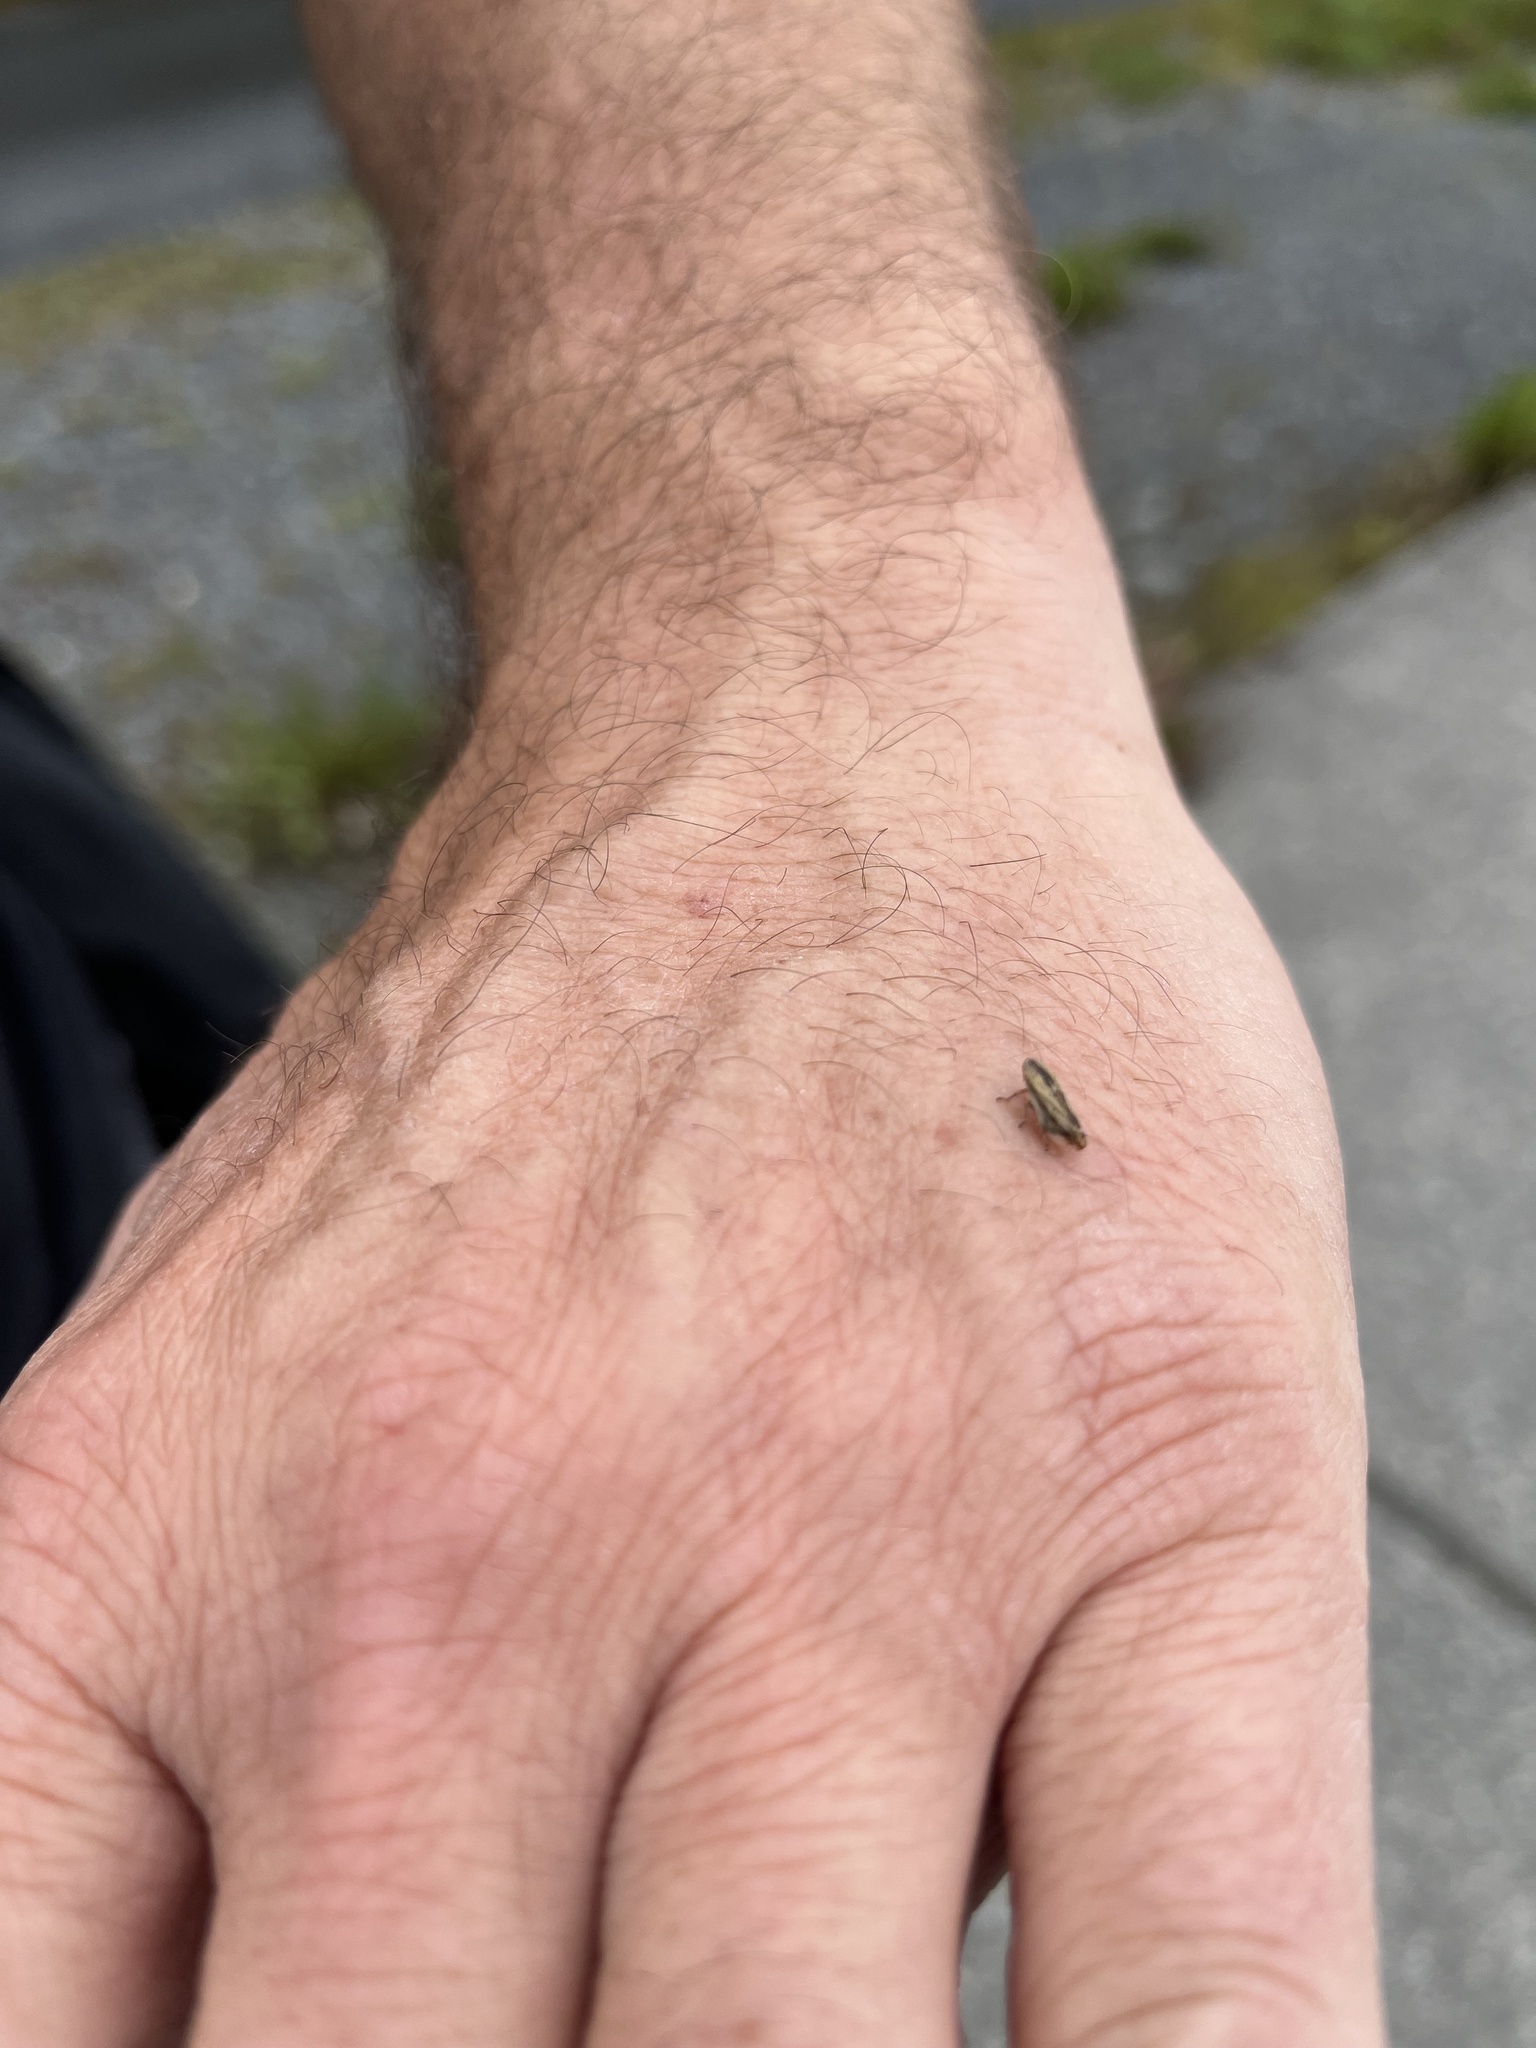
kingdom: Animalia
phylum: Arthropoda
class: Insecta
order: Hemiptera
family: Aphrophoridae
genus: Philaenus
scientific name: Philaenus spumarius
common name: Meadow spittlebug
